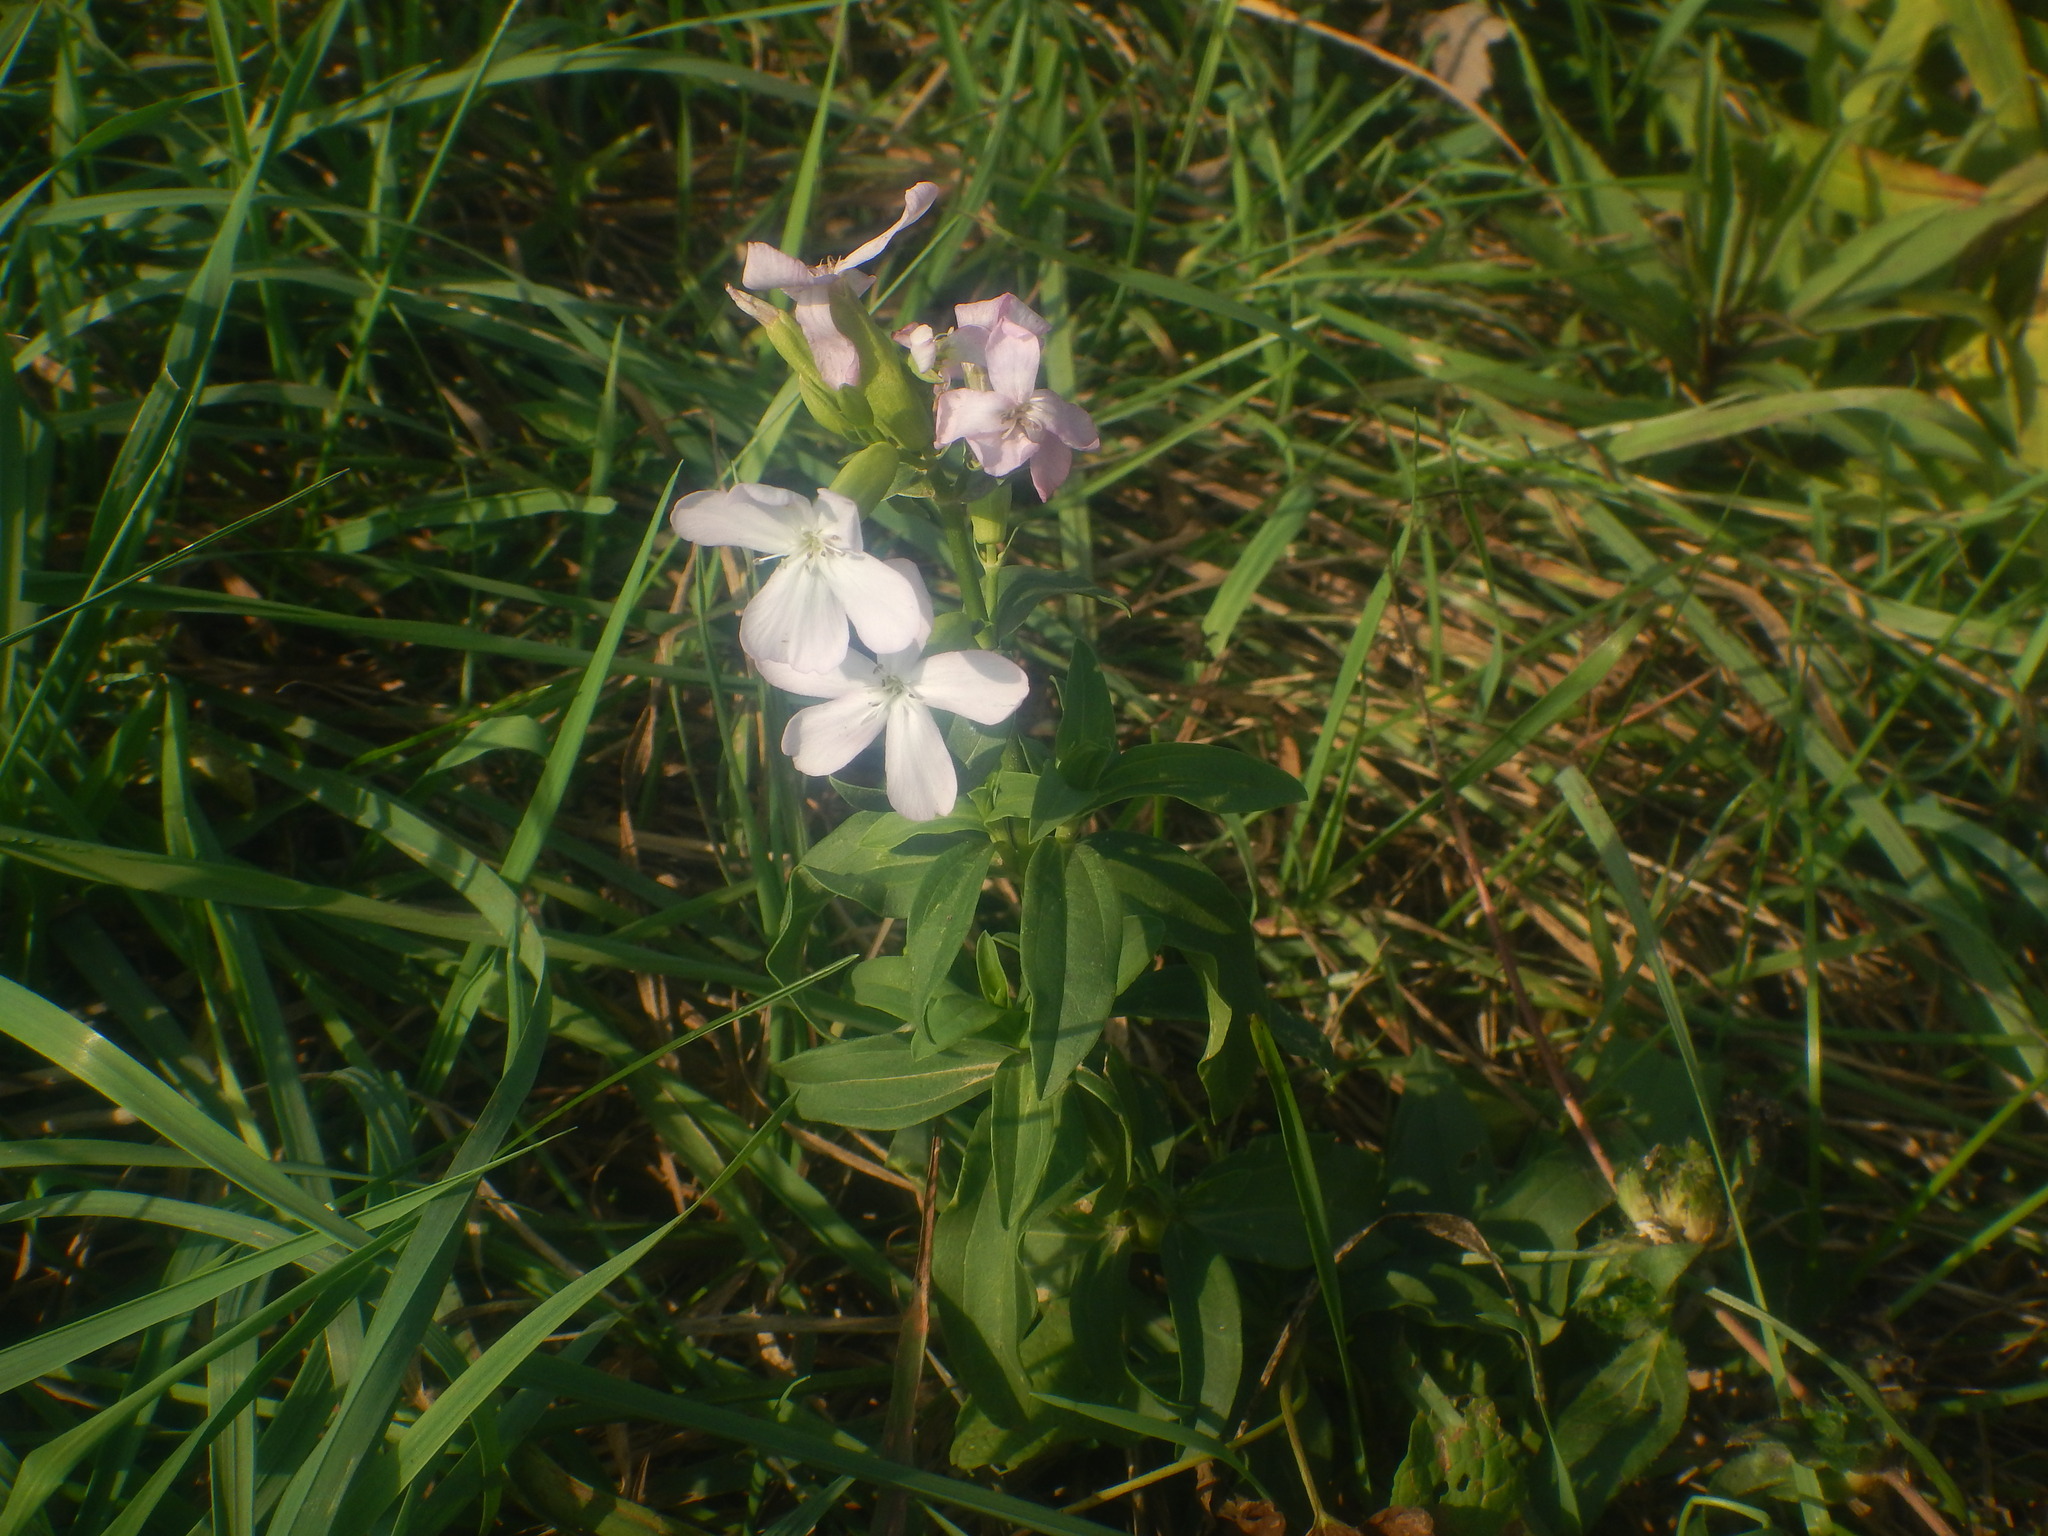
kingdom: Plantae
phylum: Tracheophyta
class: Magnoliopsida
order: Caryophyllales
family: Caryophyllaceae
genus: Saponaria
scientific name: Saponaria officinalis
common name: Soapwort
